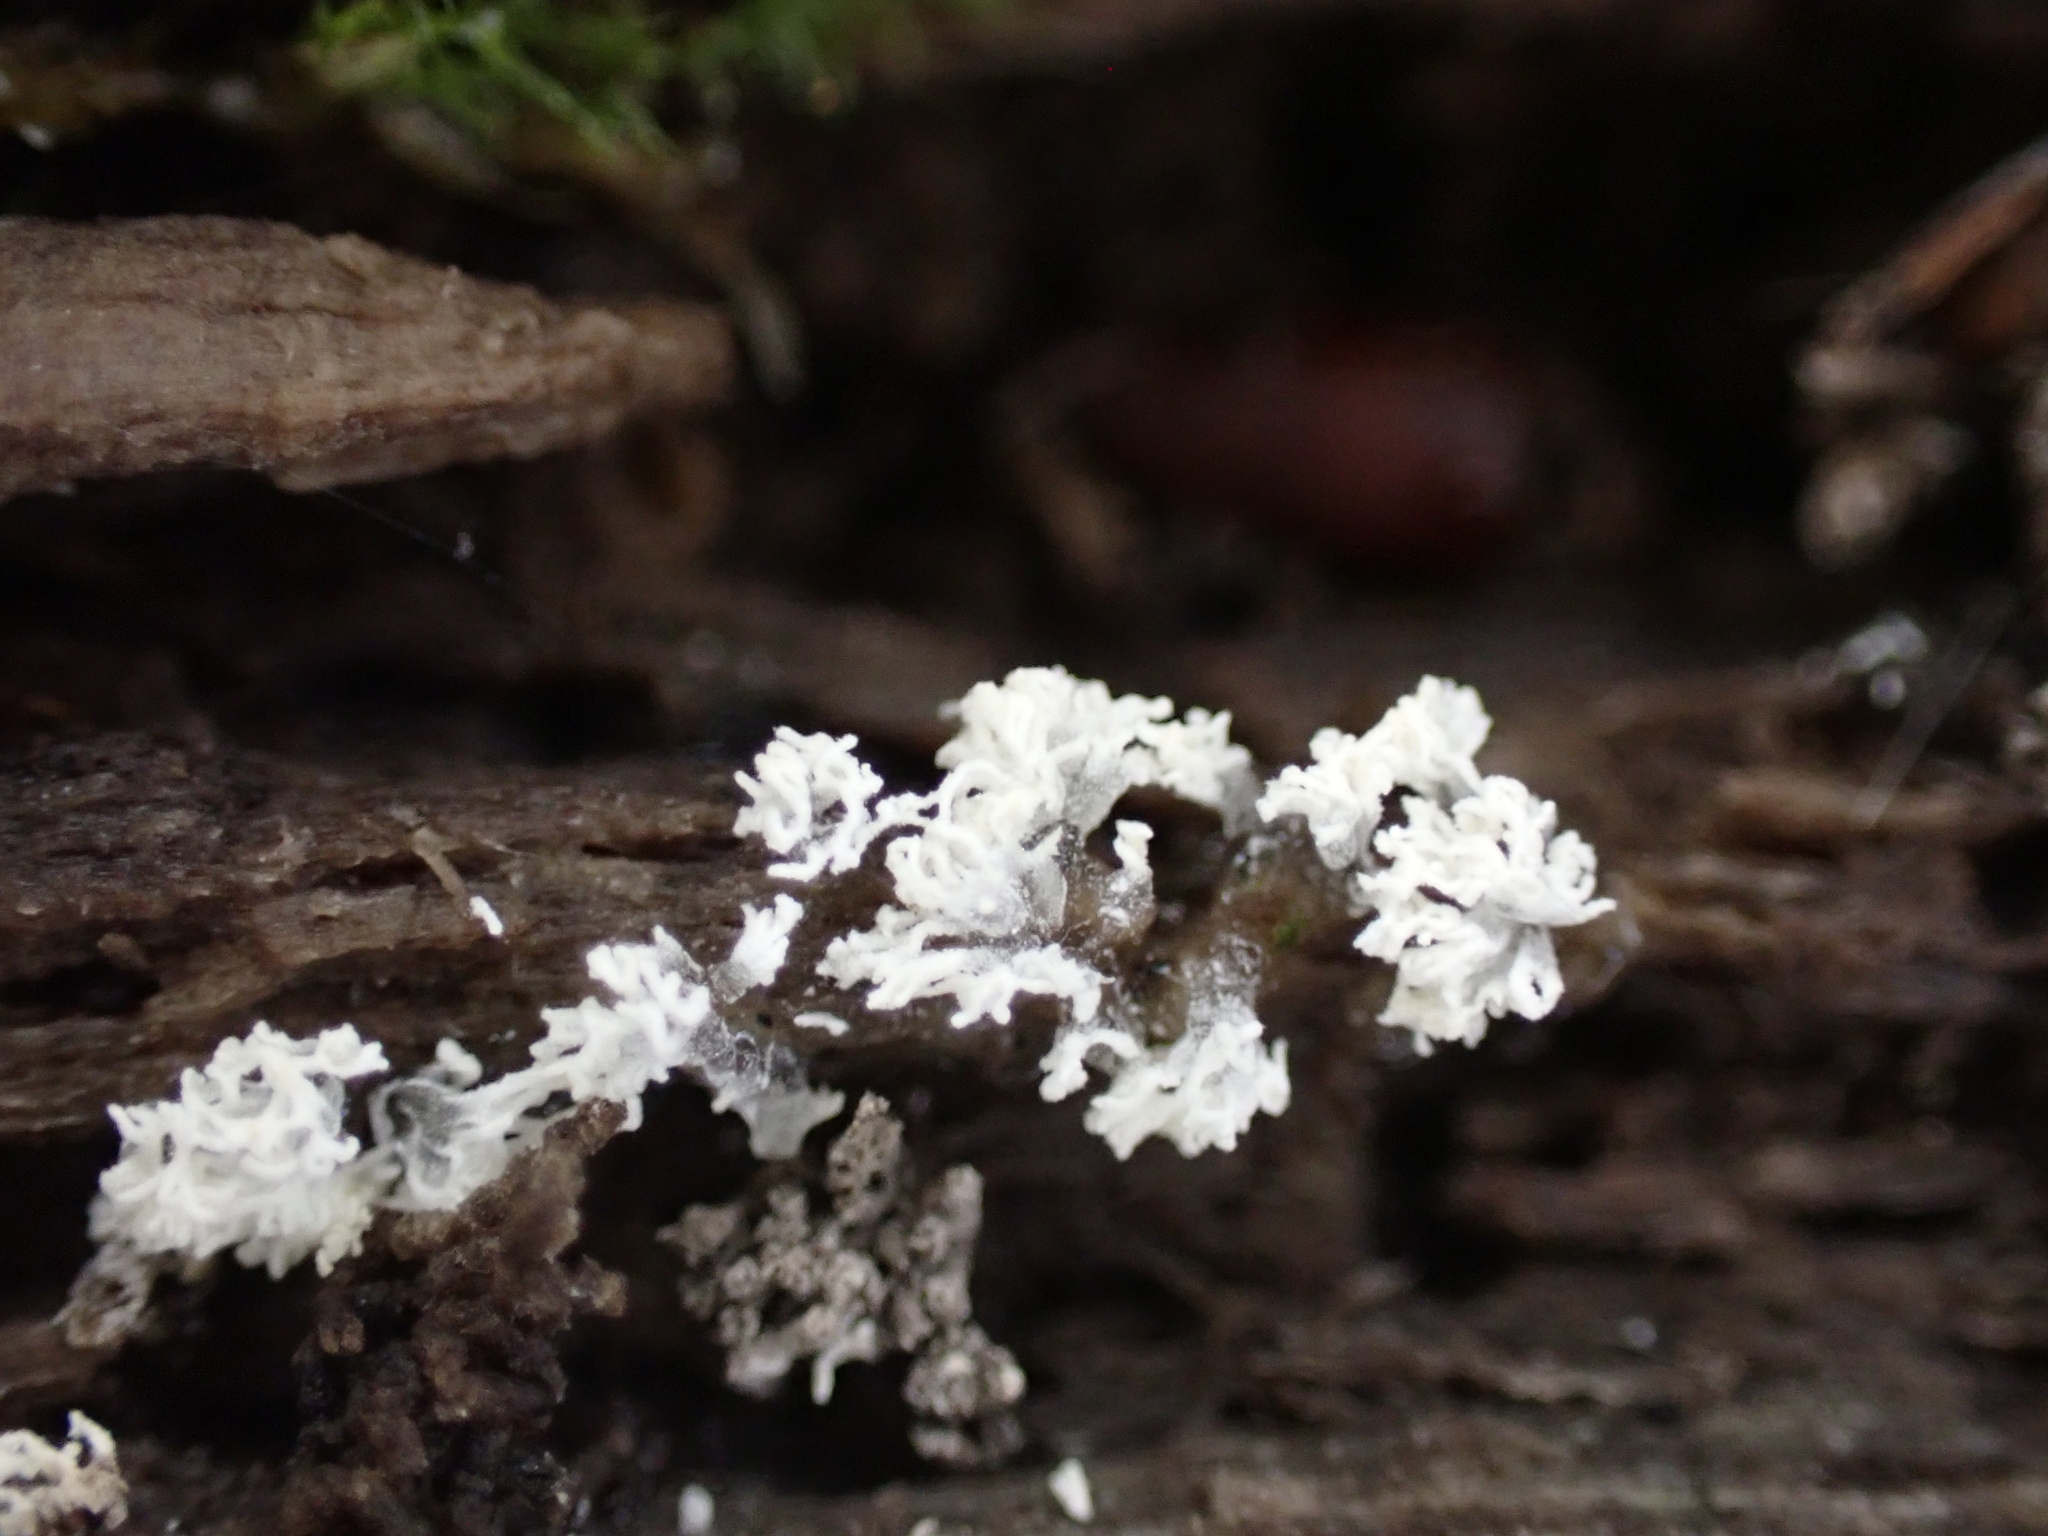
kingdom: Protozoa
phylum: Mycetozoa
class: Protosteliomycetes
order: Ceratiomyxales
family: Ceratiomyxaceae
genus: Ceratiomyxa
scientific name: Ceratiomyxa fruticulosa
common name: Honeycomb coral slime mold
